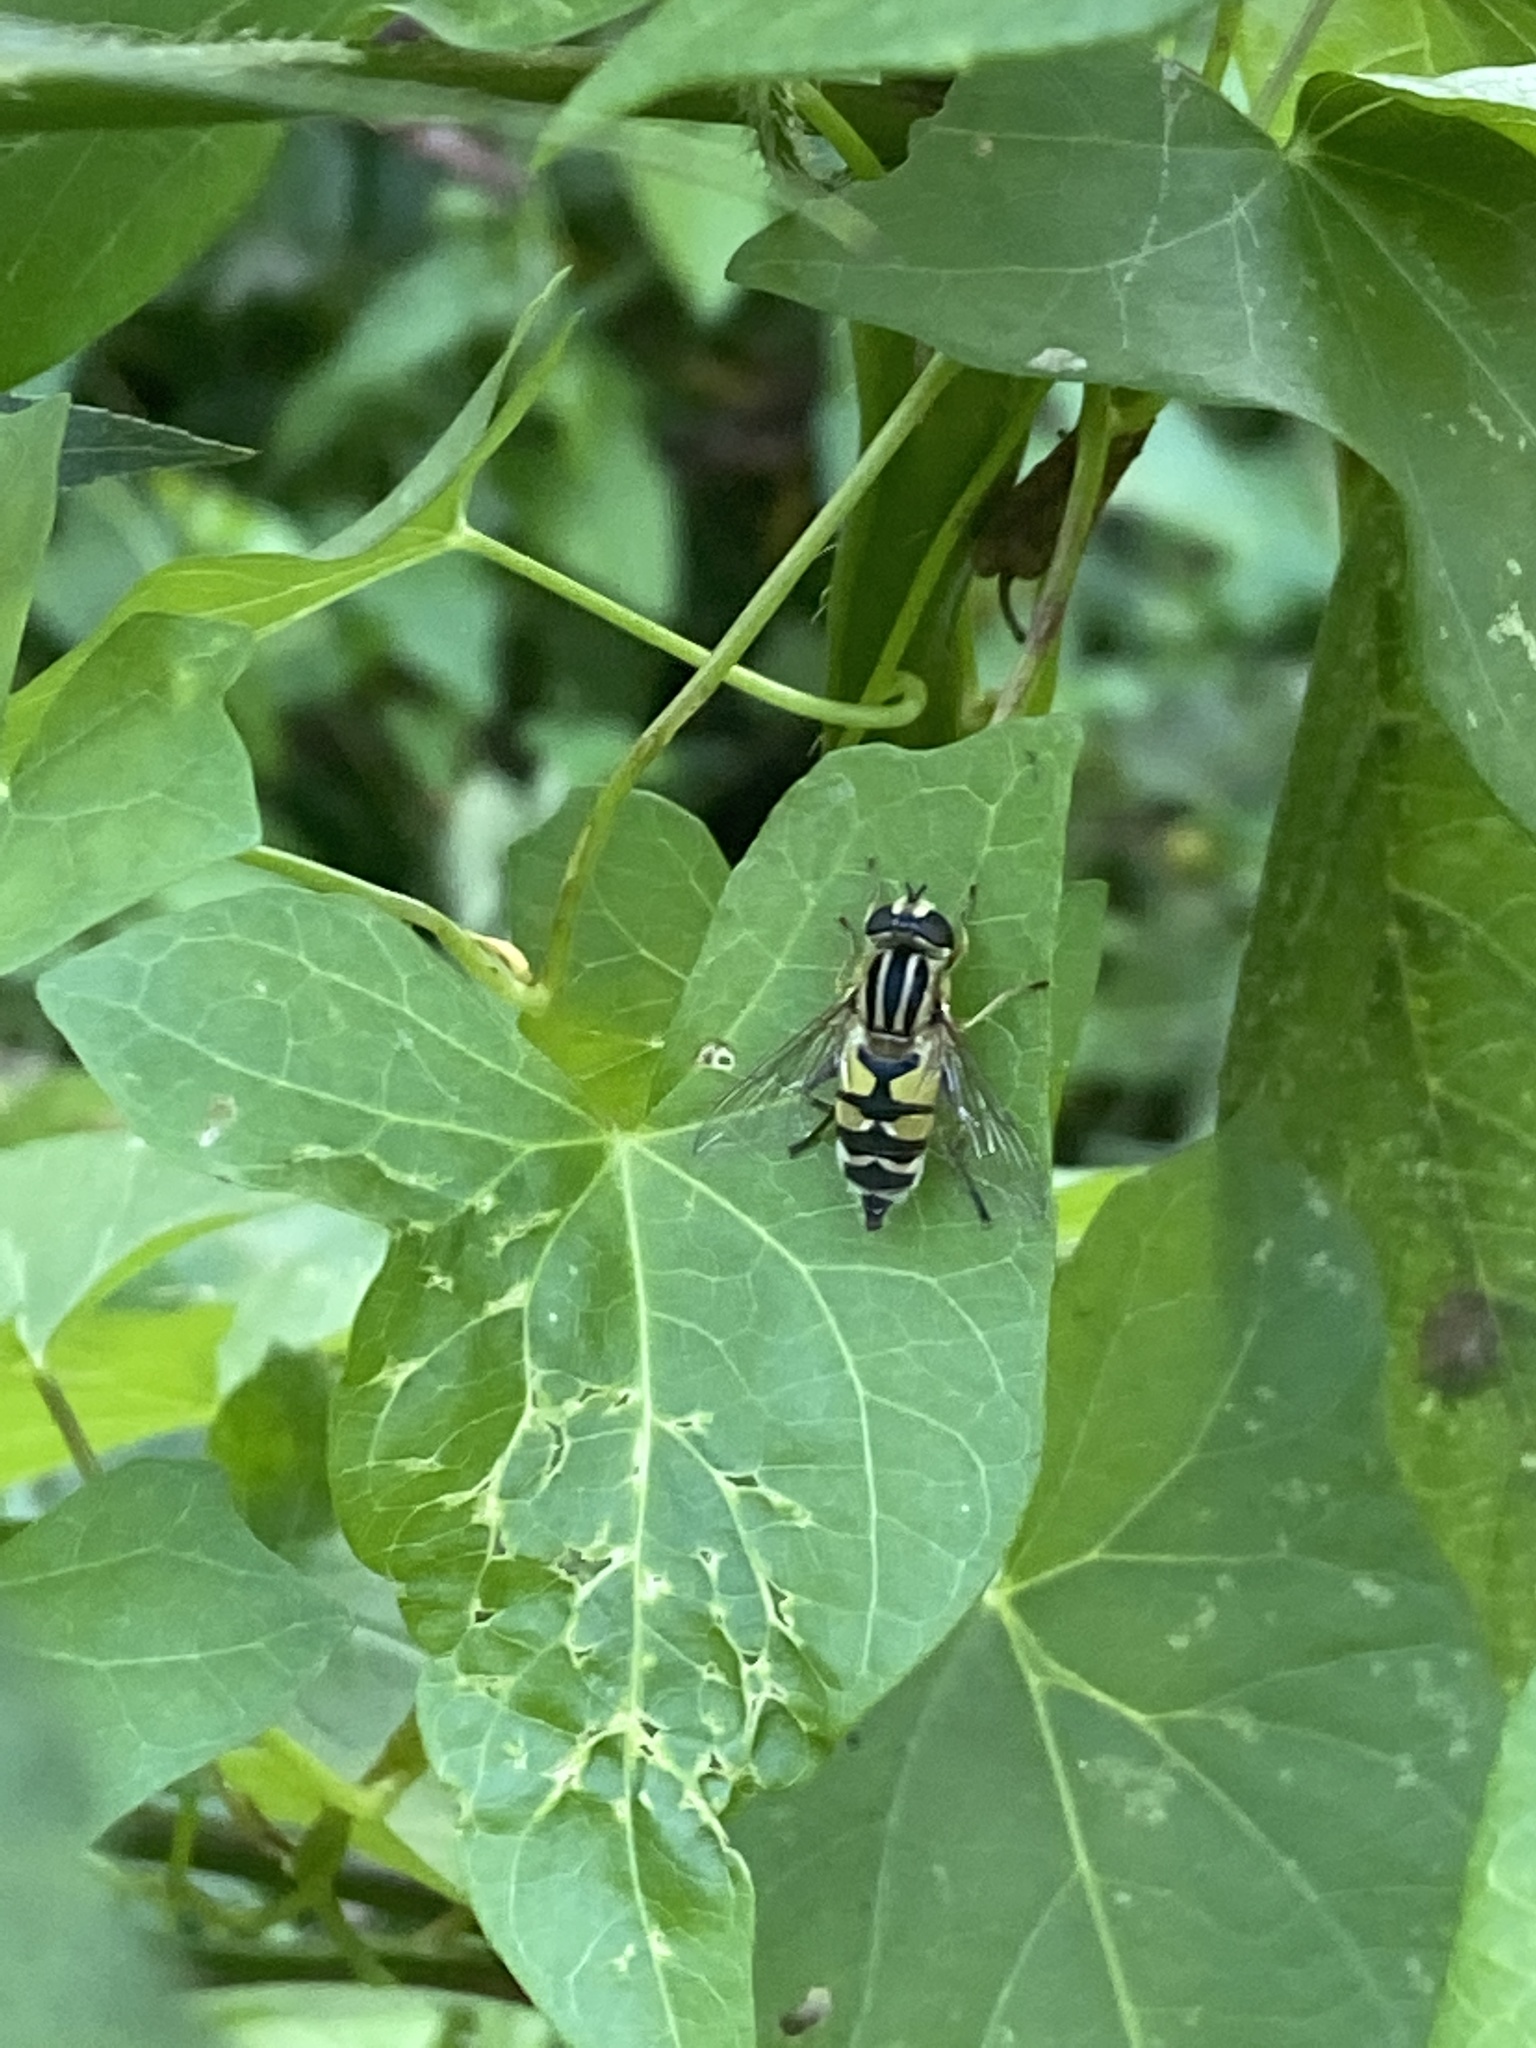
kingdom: Animalia
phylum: Arthropoda
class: Insecta
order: Diptera
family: Syrphidae
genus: Helophilus
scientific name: Helophilus trivittatus
